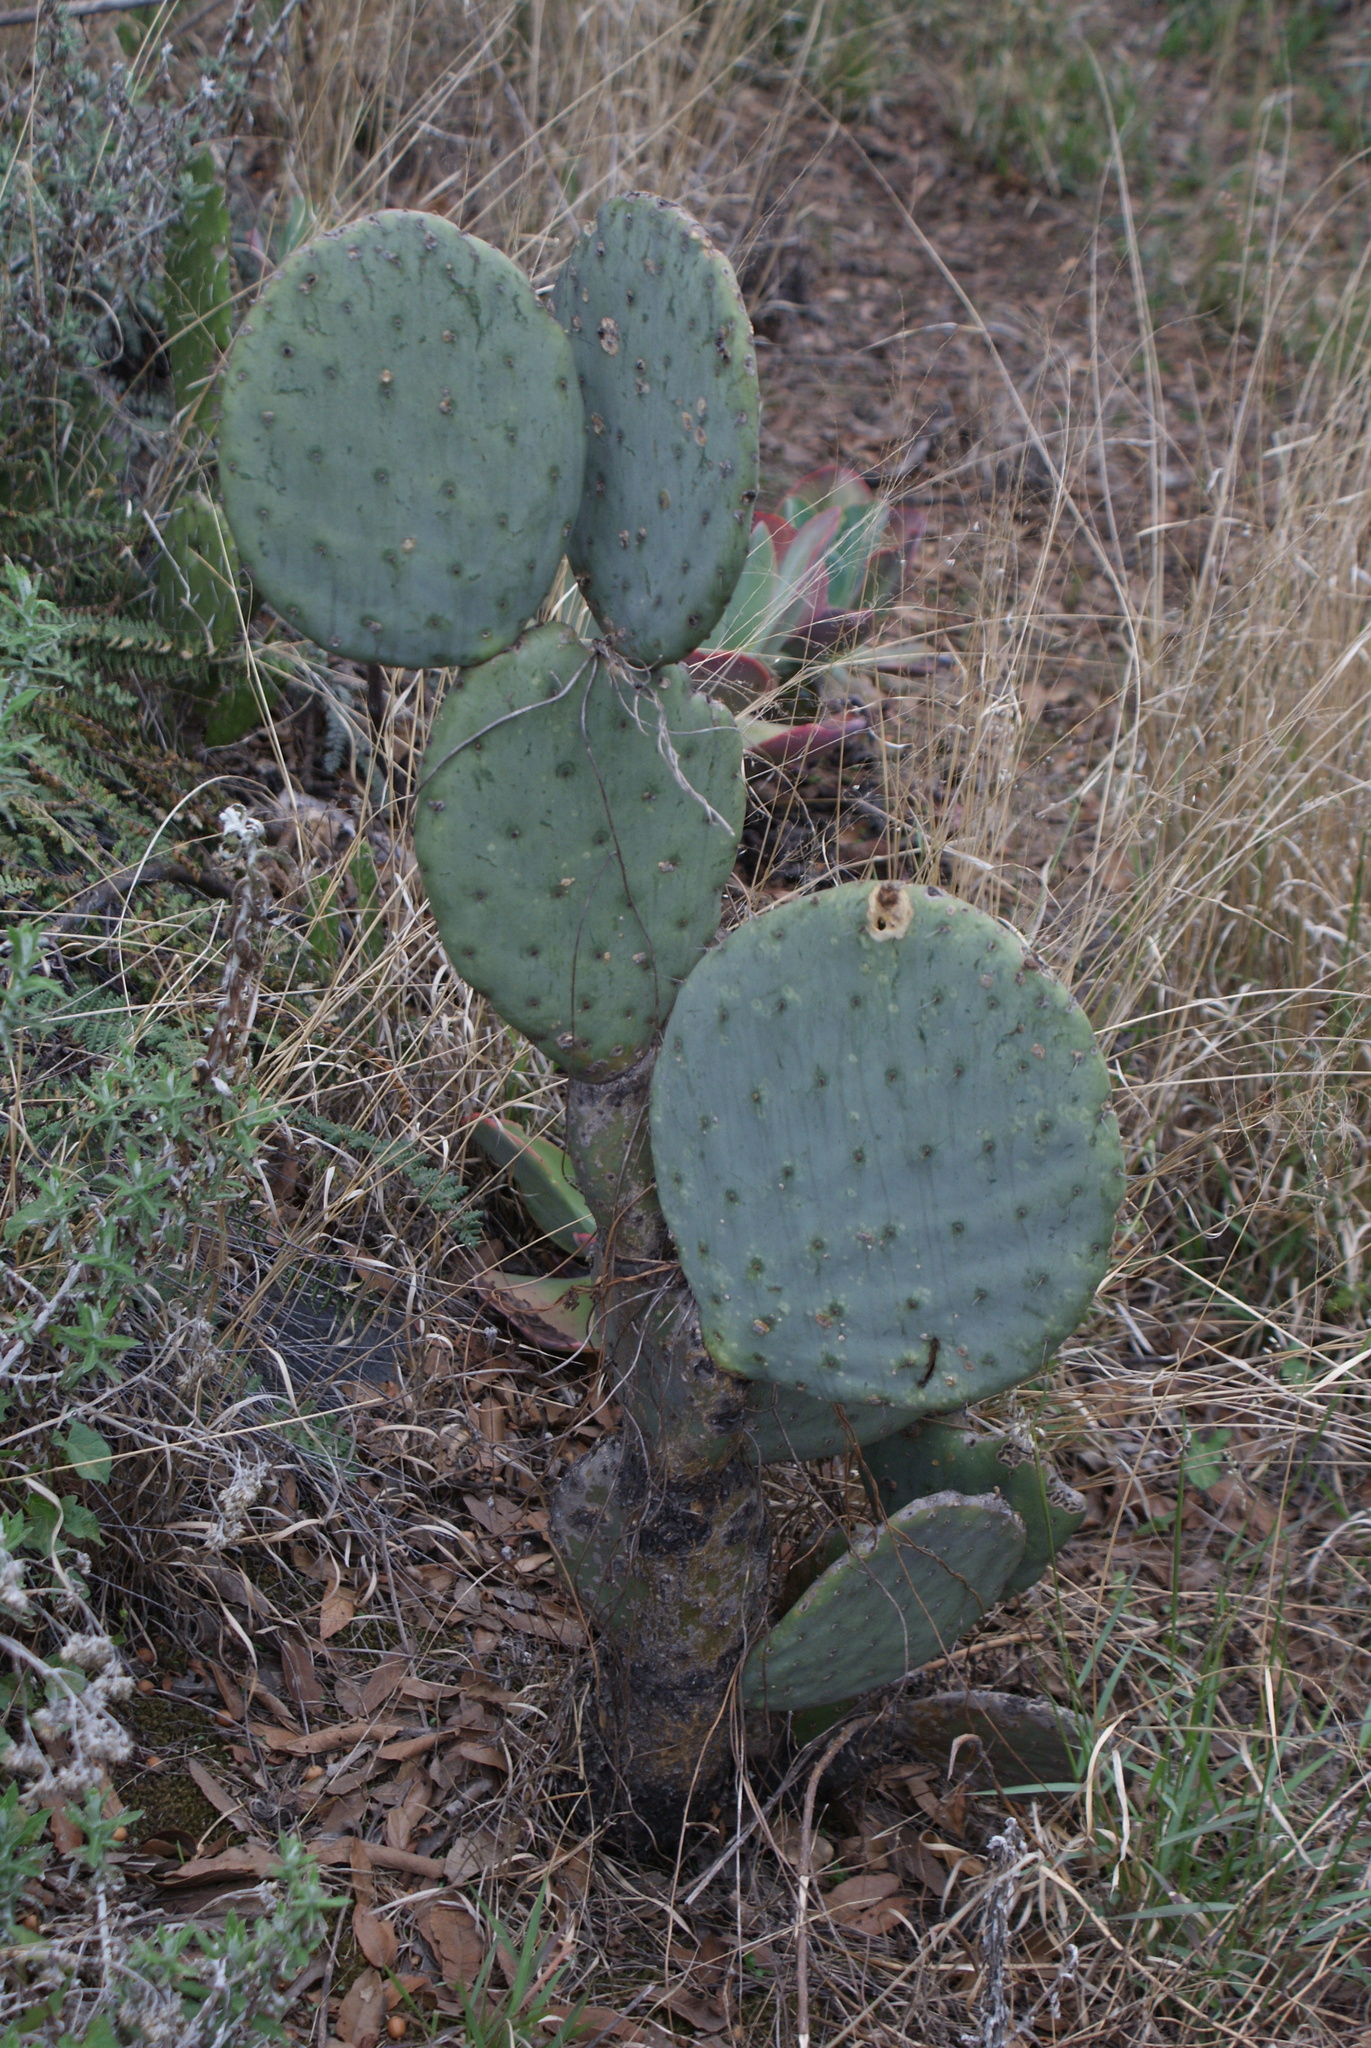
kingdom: Plantae
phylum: Tracheophyta
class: Magnoliopsida
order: Caryophyllales
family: Cactaceae
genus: Opuntia
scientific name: Opuntia robusta
